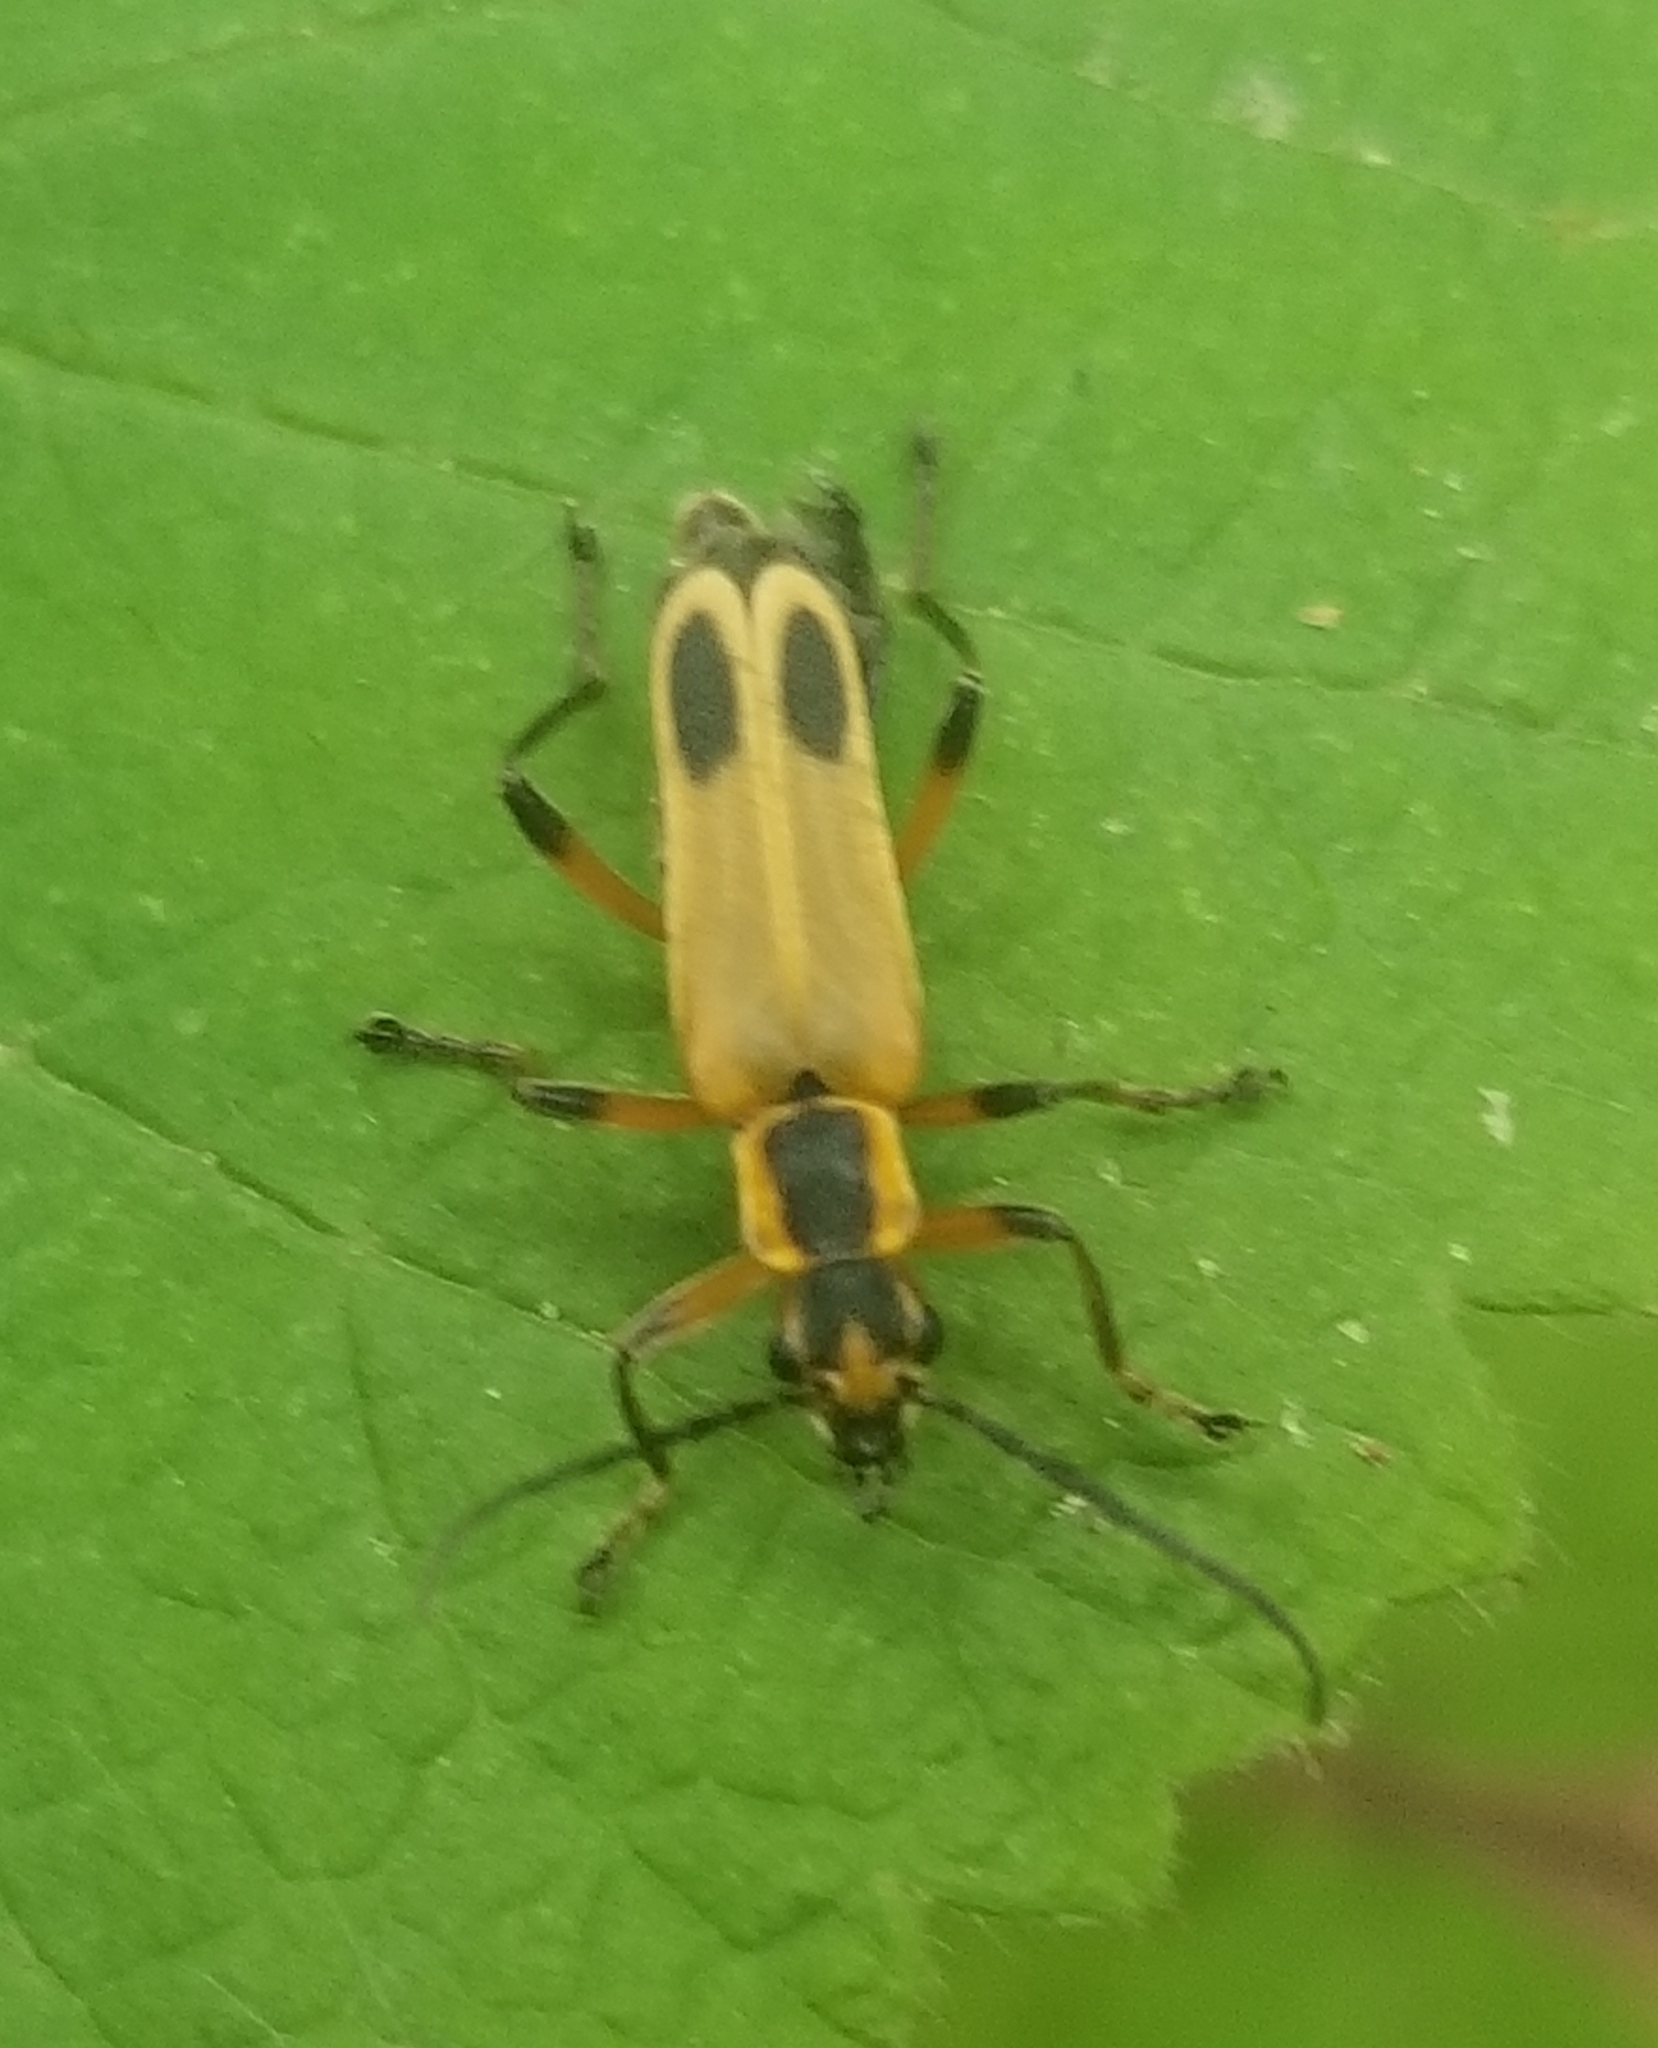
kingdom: Animalia
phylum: Arthropoda
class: Insecta
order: Coleoptera
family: Cantharidae
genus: Chauliognathus
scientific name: Chauliognathus marginatus
